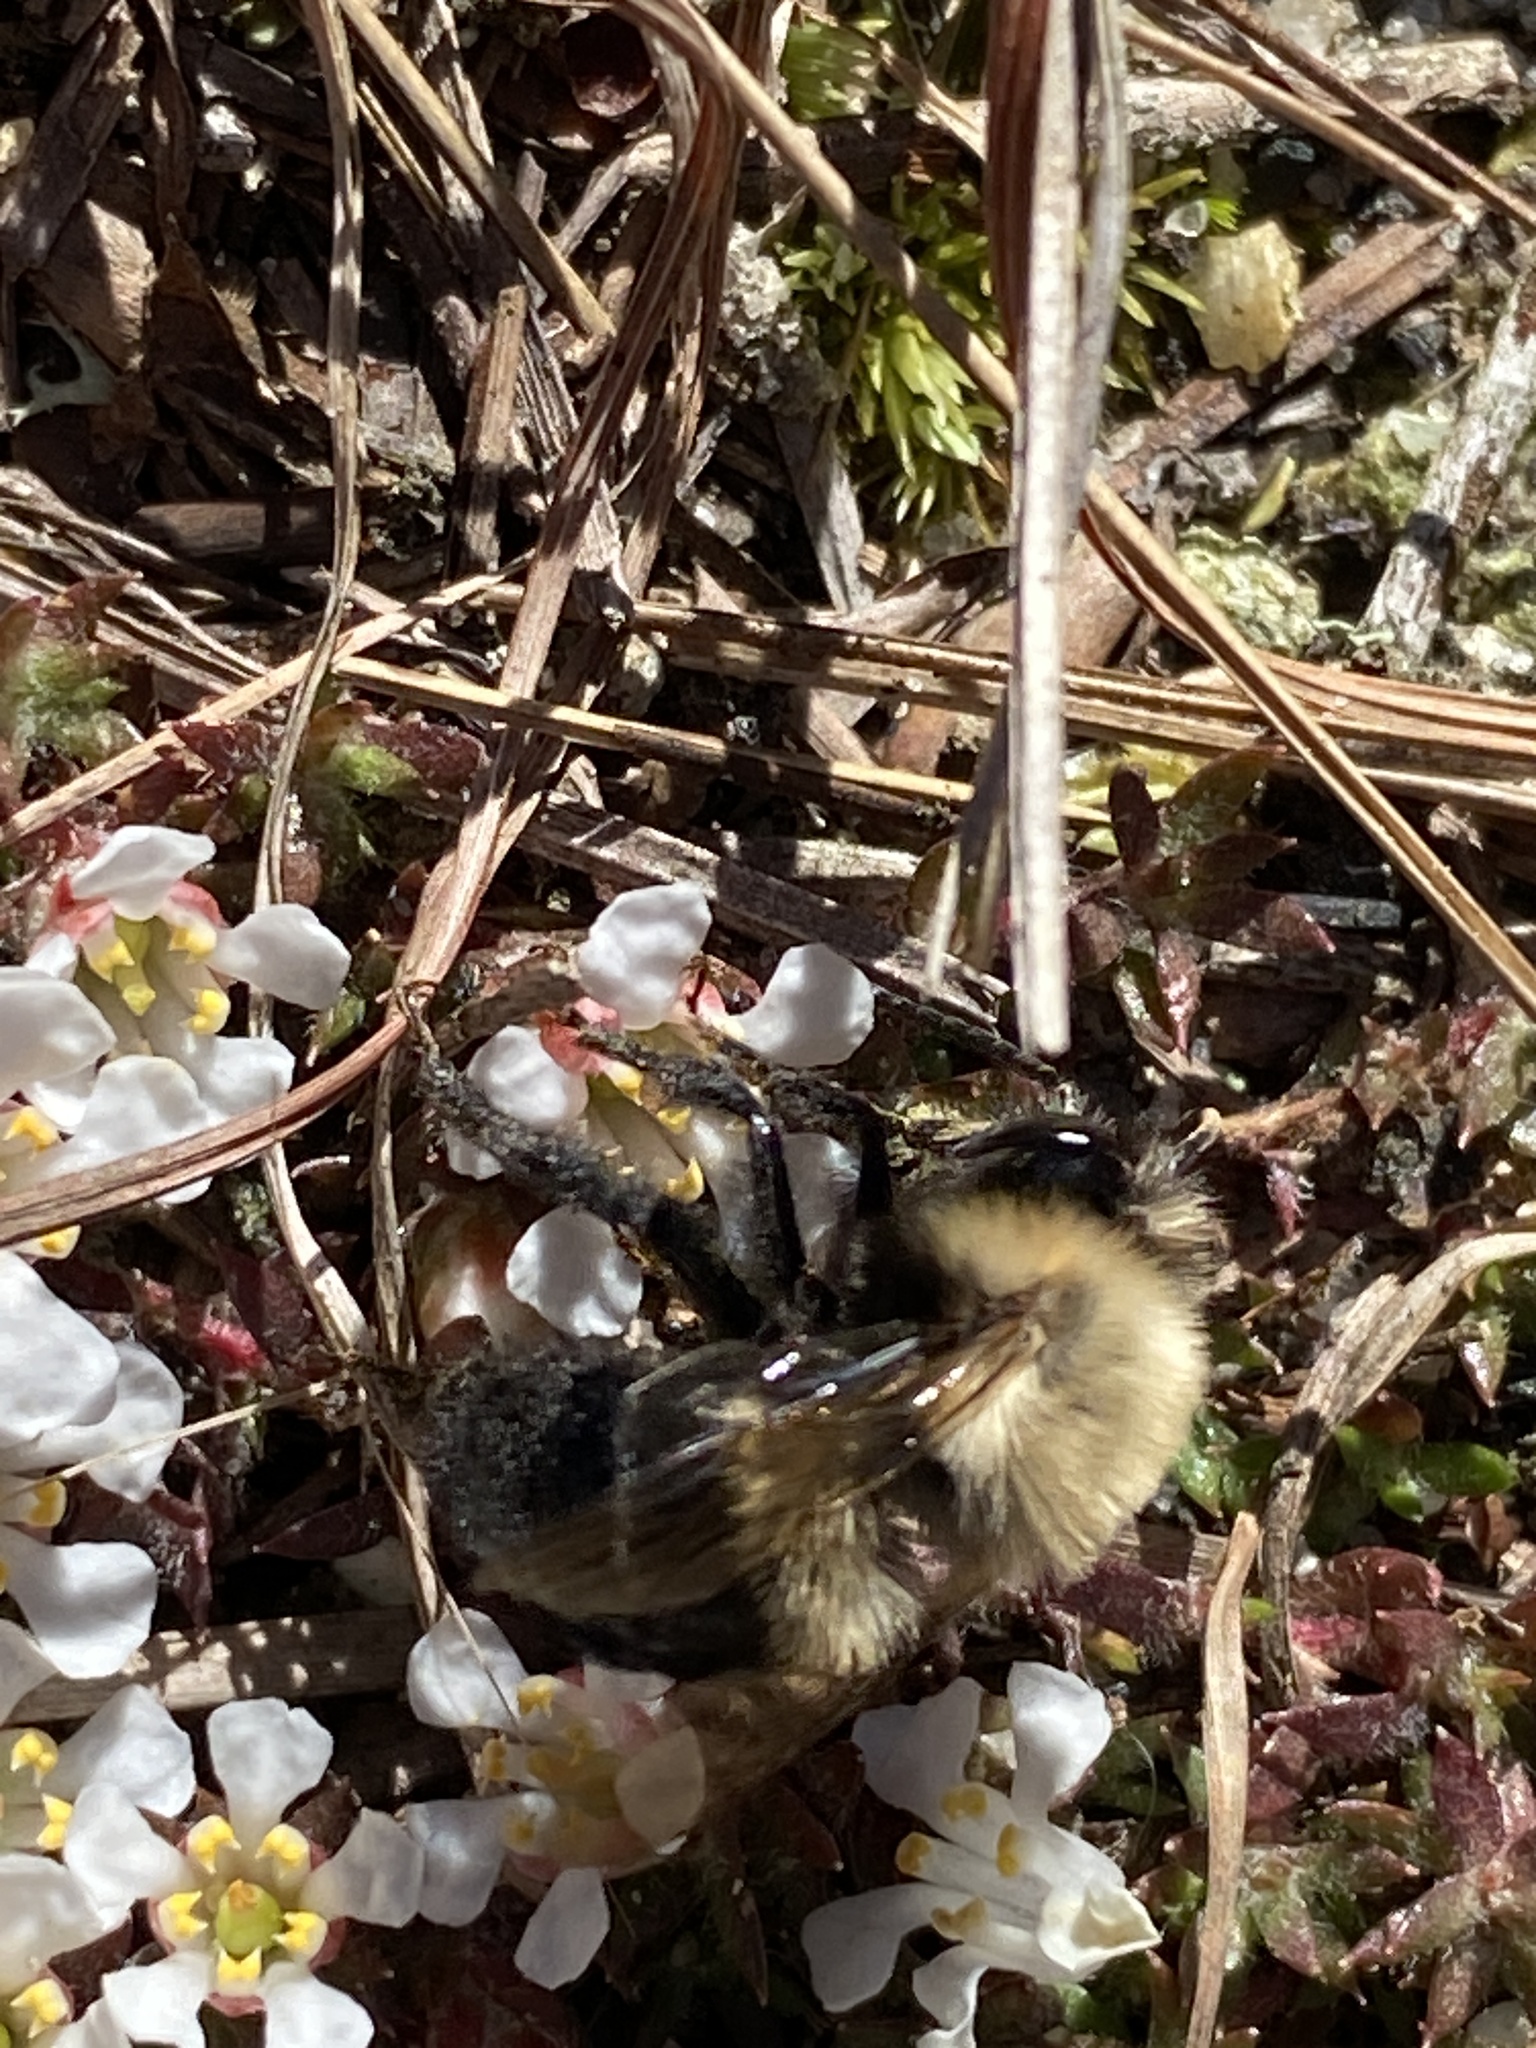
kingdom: Animalia
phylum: Arthropoda
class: Insecta
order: Hymenoptera
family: Apidae
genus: Habropoda
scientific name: Habropoda laboriosa
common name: Southeastern blueberry bee
